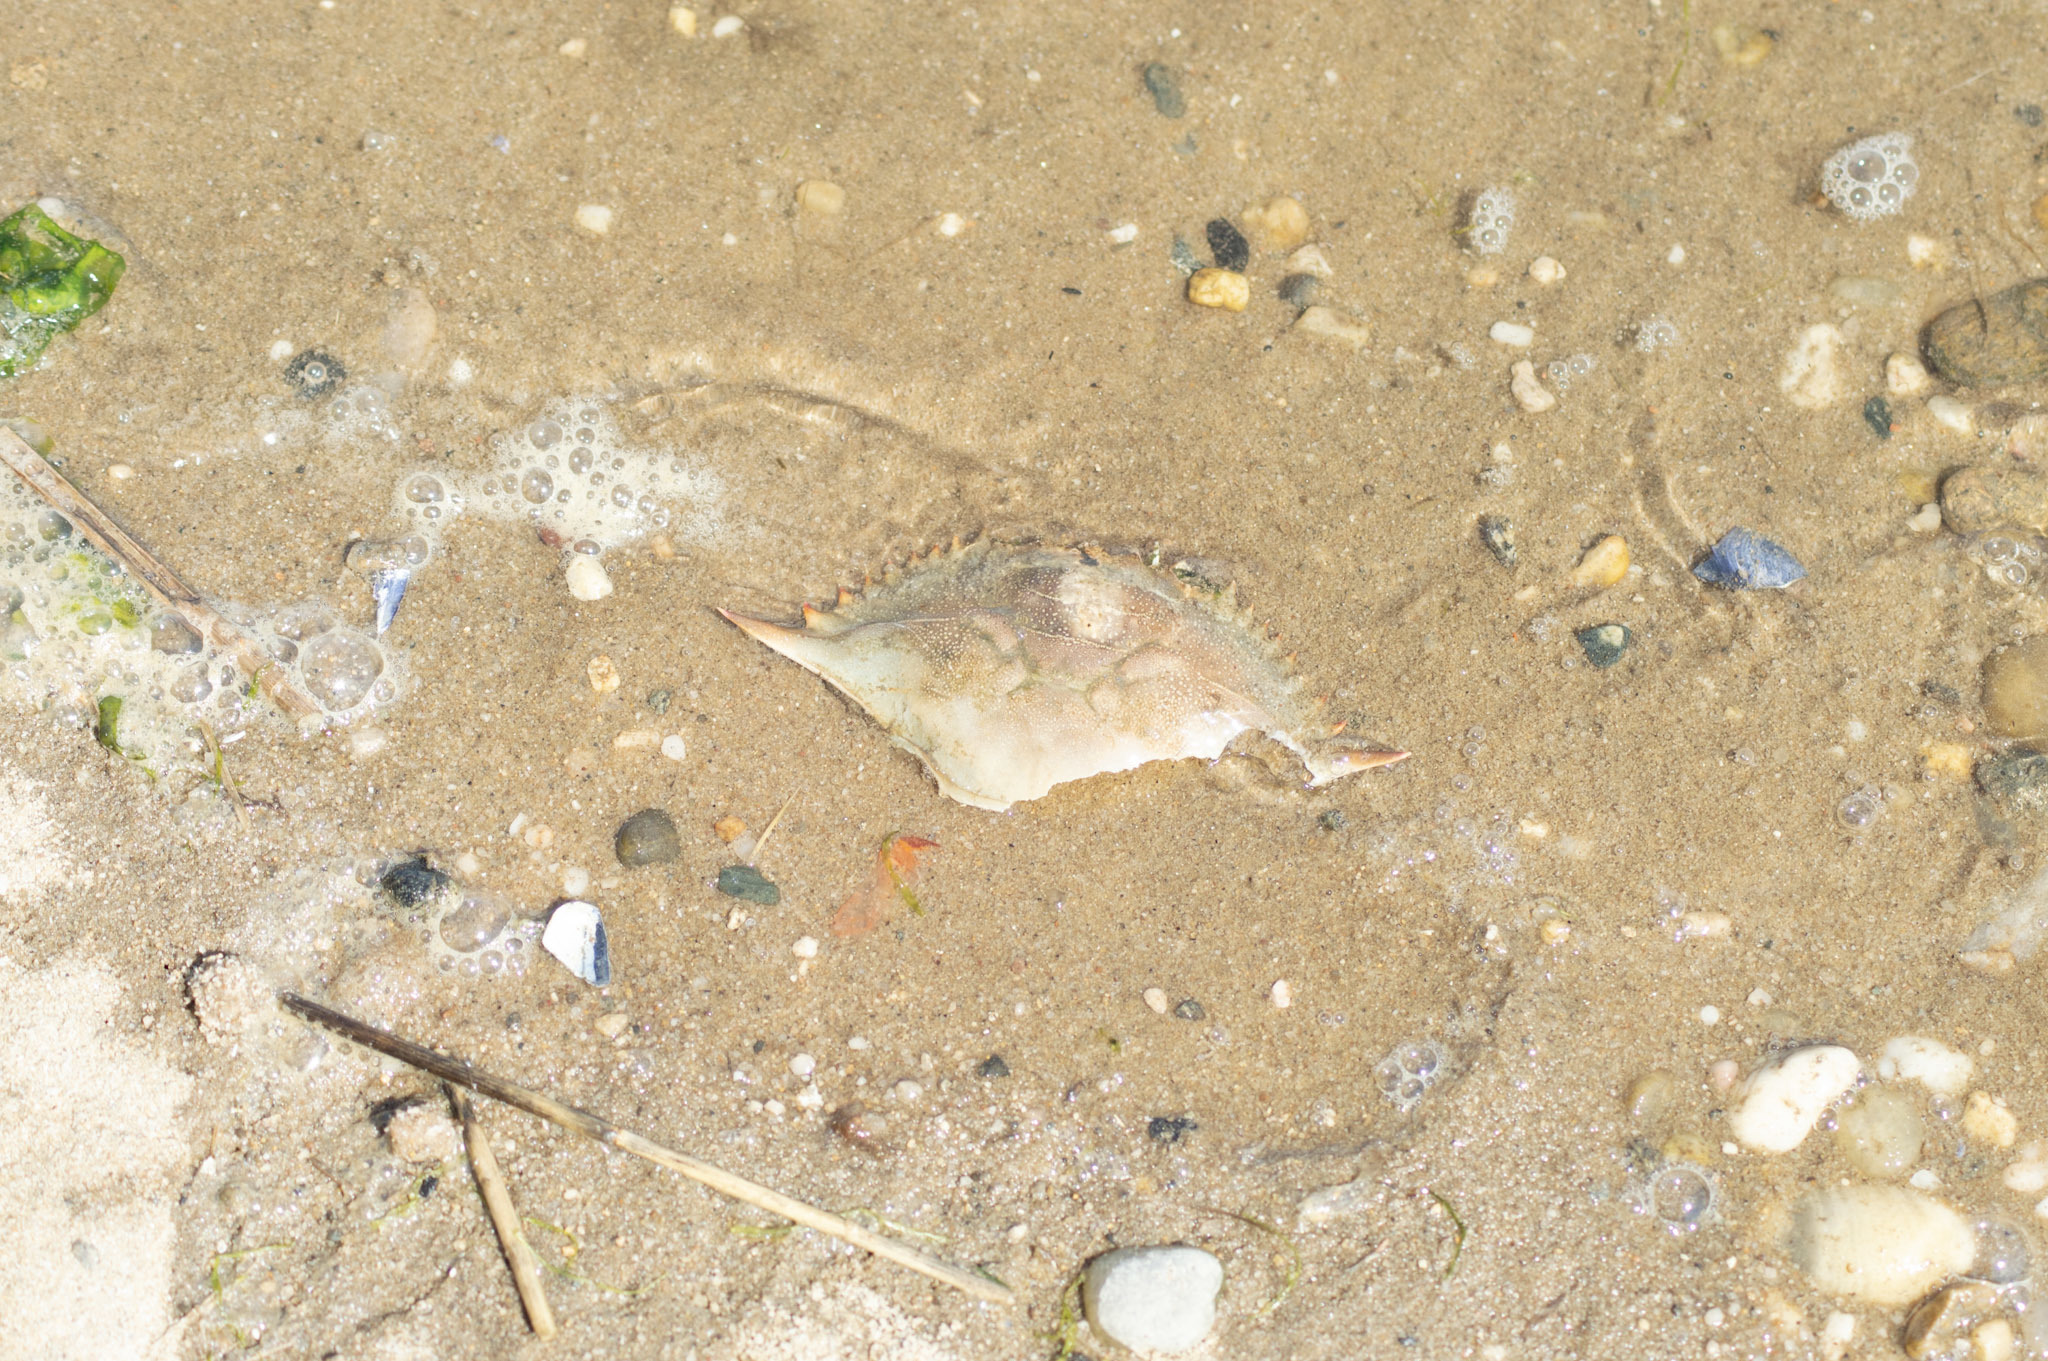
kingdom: Animalia
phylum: Arthropoda
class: Malacostraca
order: Decapoda
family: Portunidae
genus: Callinectes
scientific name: Callinectes sapidus
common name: Blue crab
